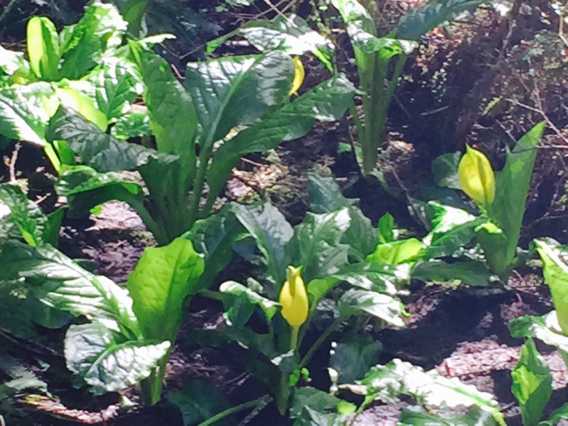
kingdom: Plantae
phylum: Tracheophyta
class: Liliopsida
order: Alismatales
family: Araceae
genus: Lysichiton
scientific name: Lysichiton americanus
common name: American skunk cabbage
